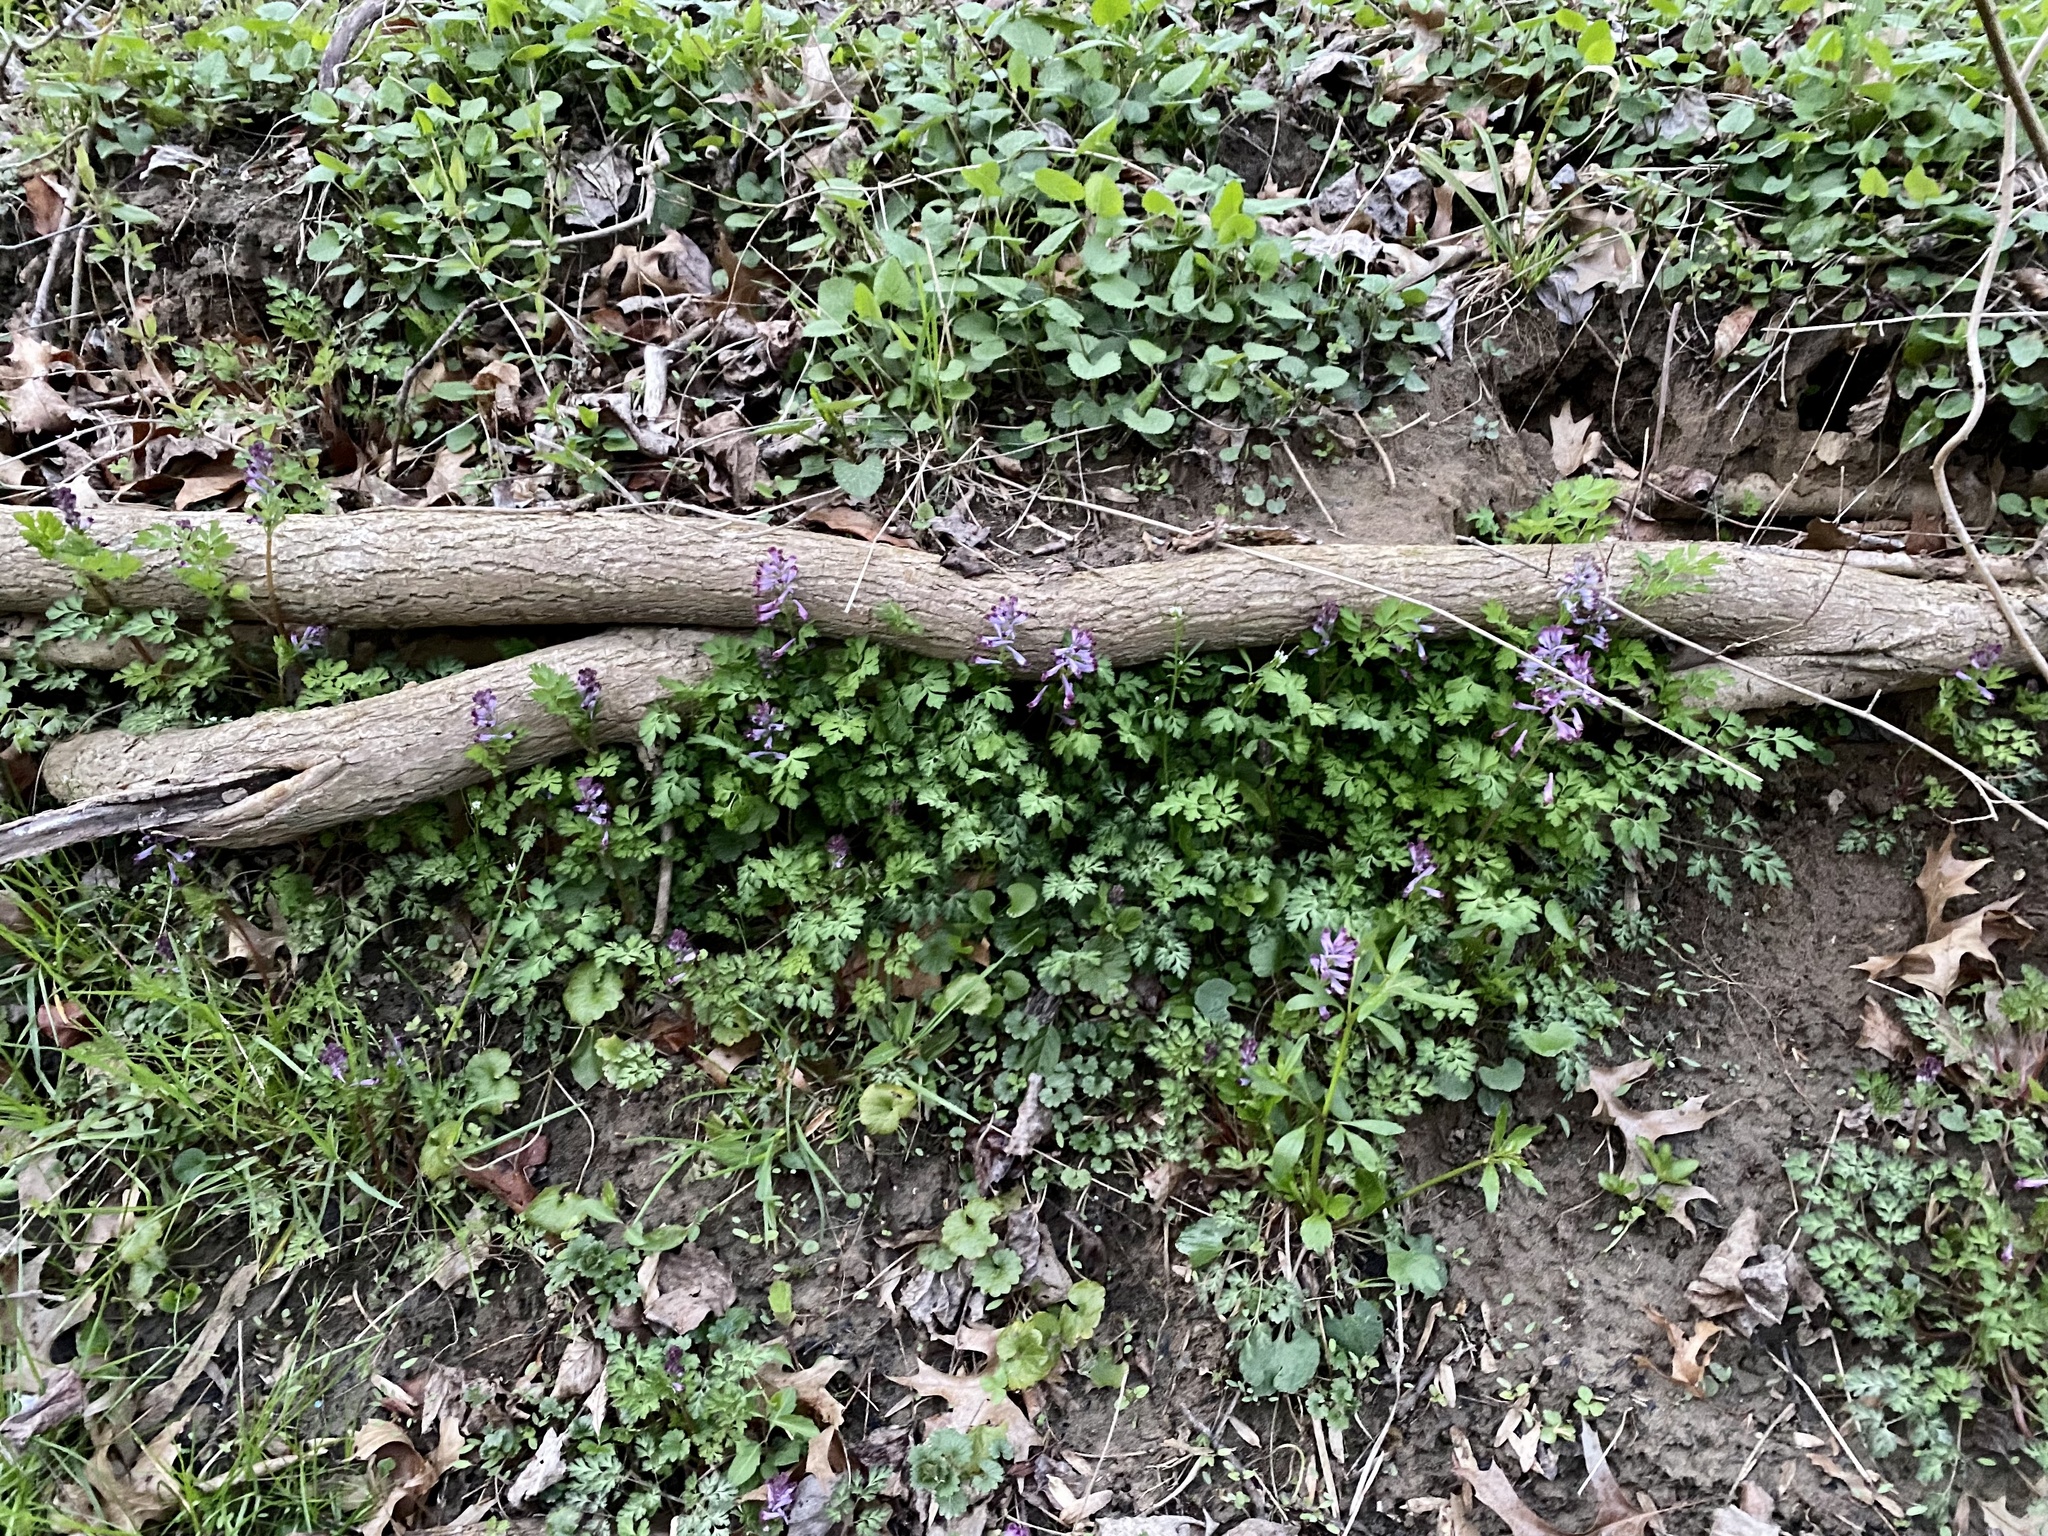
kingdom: Plantae
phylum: Tracheophyta
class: Magnoliopsida
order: Ranunculales
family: Papaveraceae
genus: Corydalis
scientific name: Corydalis incisa
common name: Incised fumewort
